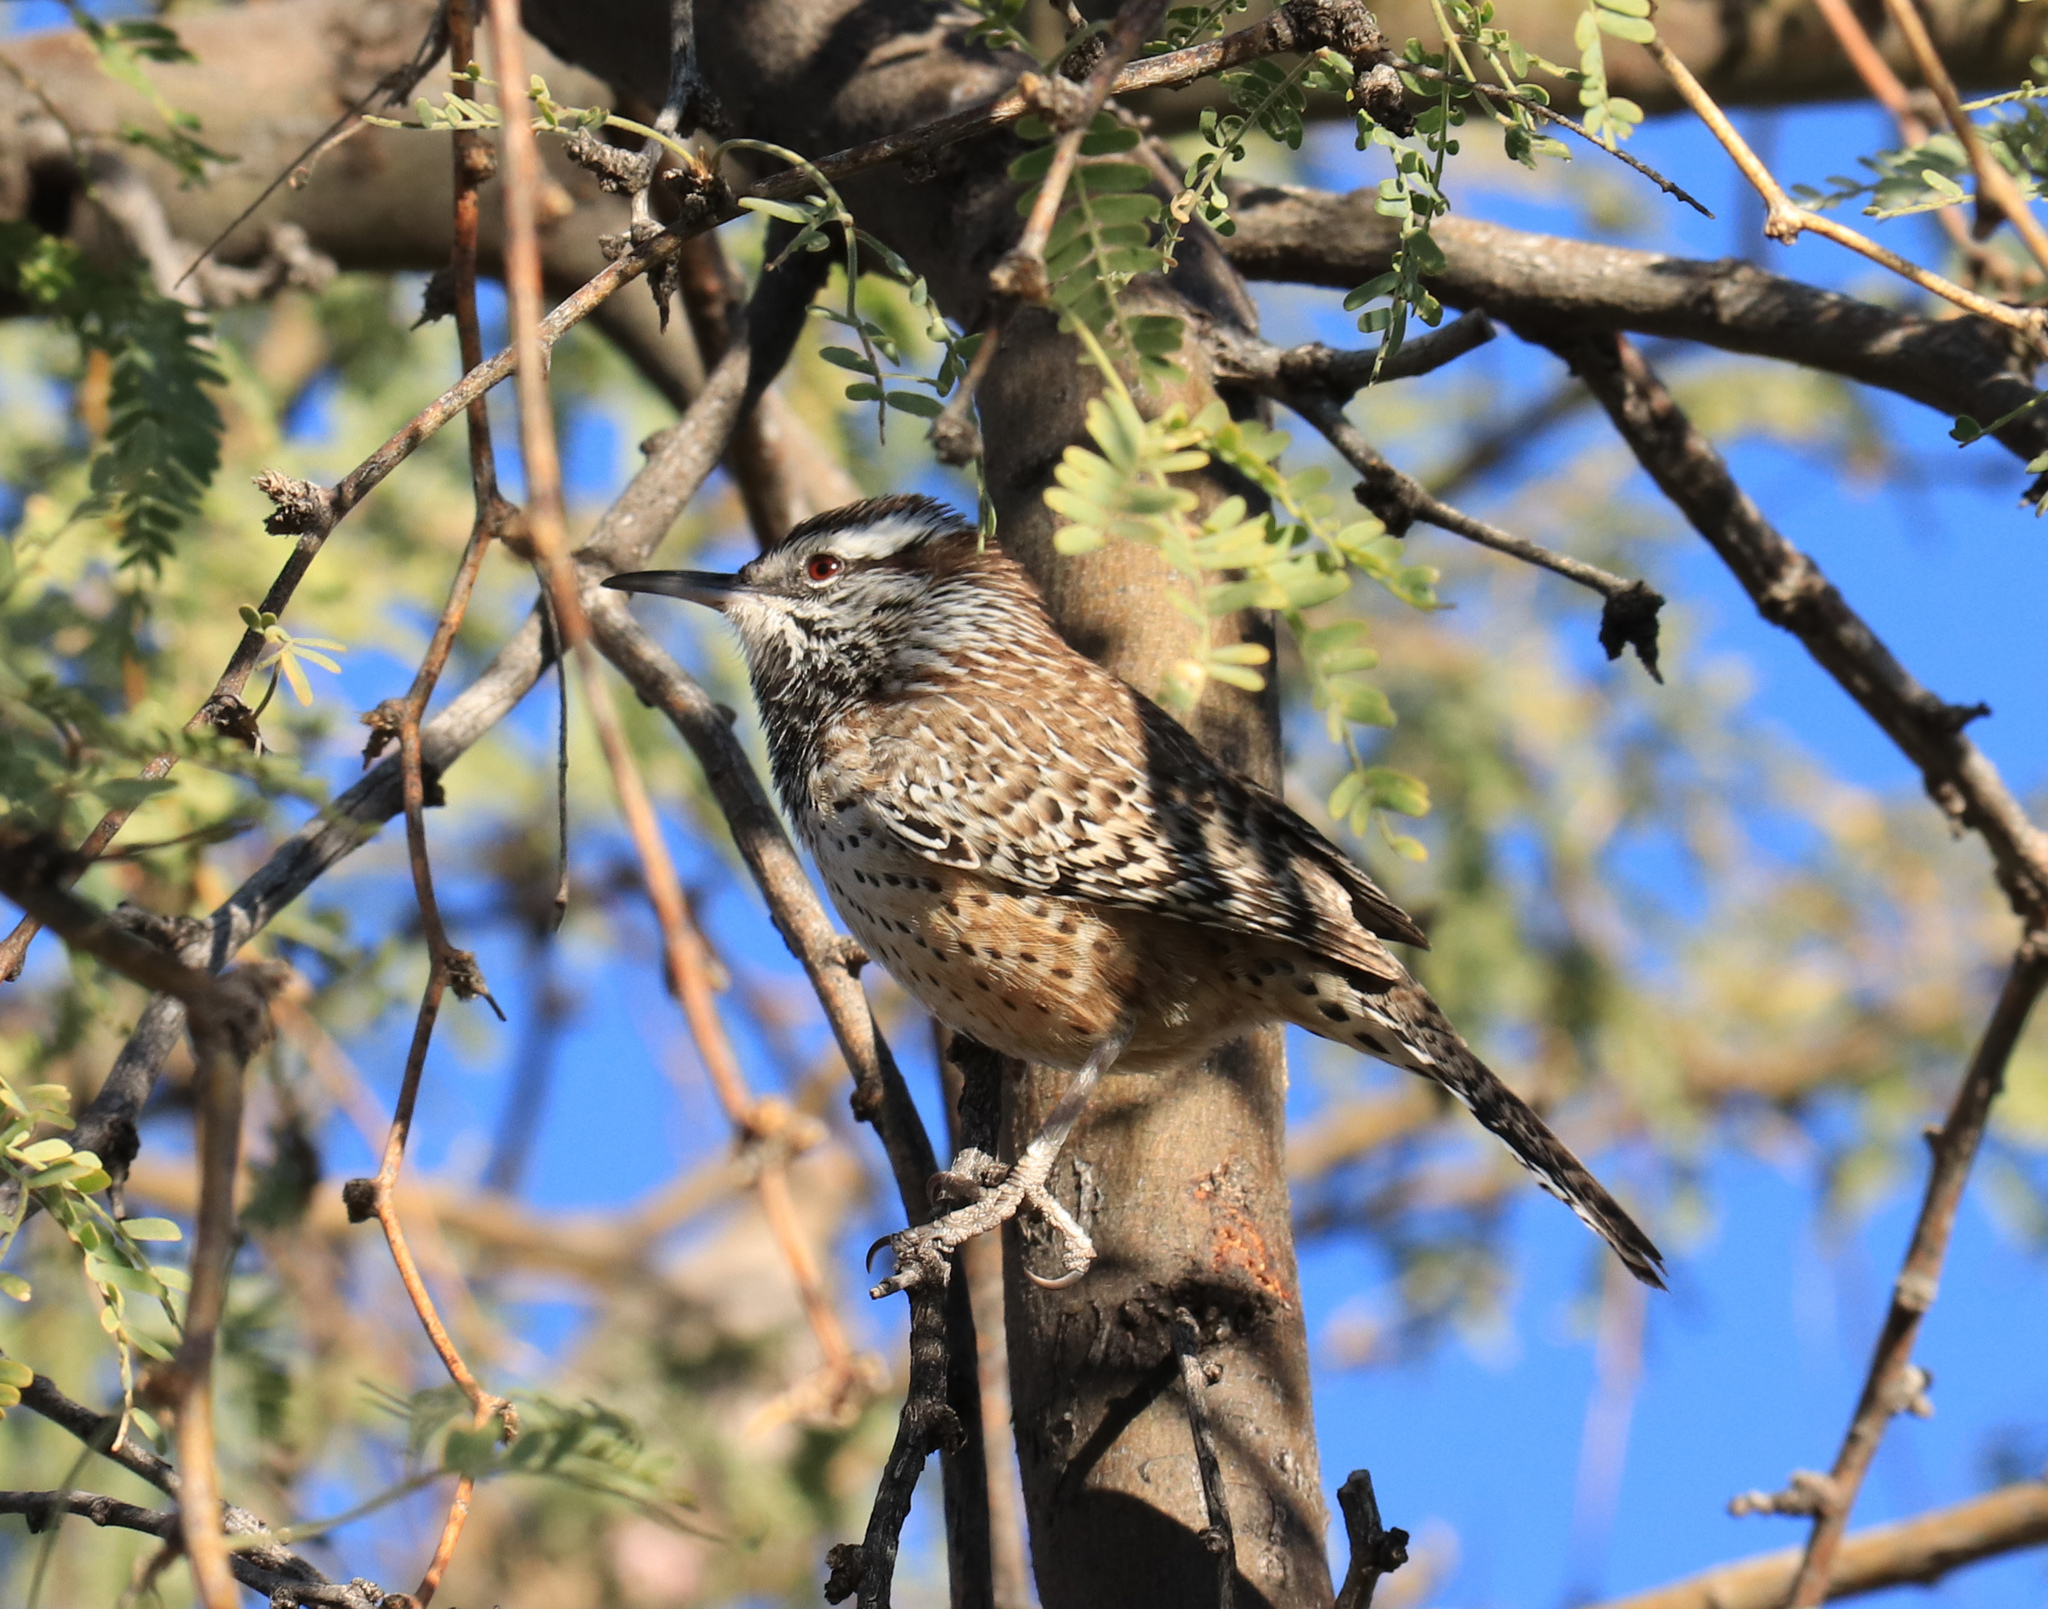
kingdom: Animalia
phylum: Chordata
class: Aves
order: Passeriformes
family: Troglodytidae
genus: Campylorhynchus
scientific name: Campylorhynchus brunneicapillus
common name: Cactus wren
